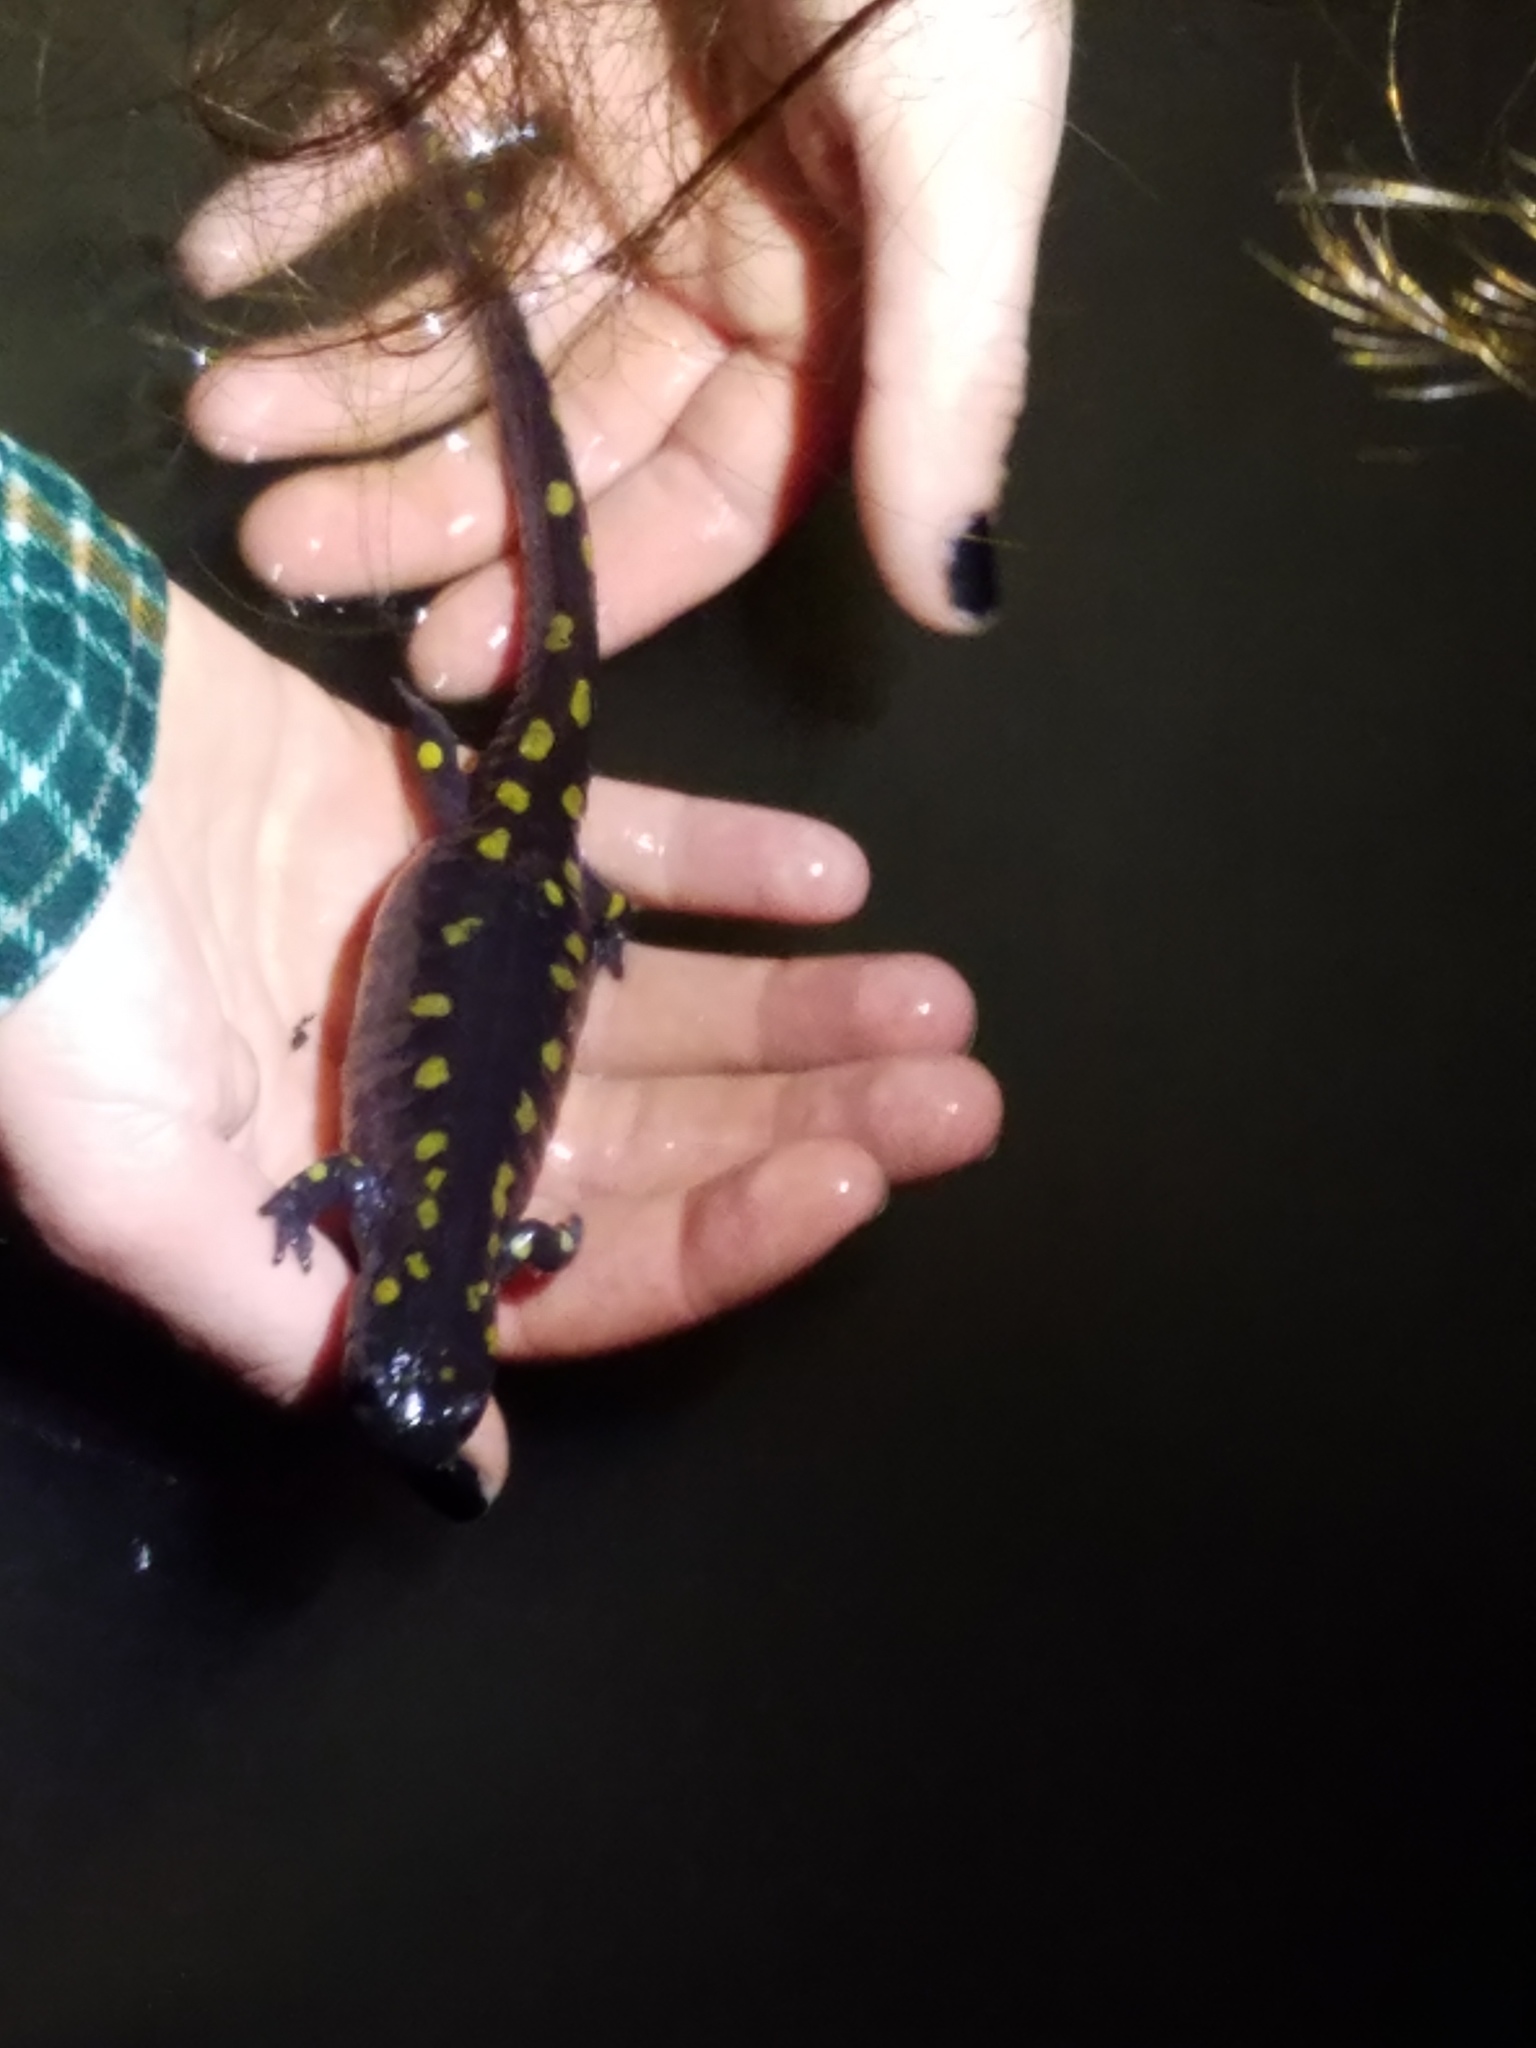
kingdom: Animalia
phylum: Chordata
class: Amphibia
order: Caudata
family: Ambystomatidae
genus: Ambystoma
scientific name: Ambystoma maculatum
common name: Spotted salamander
